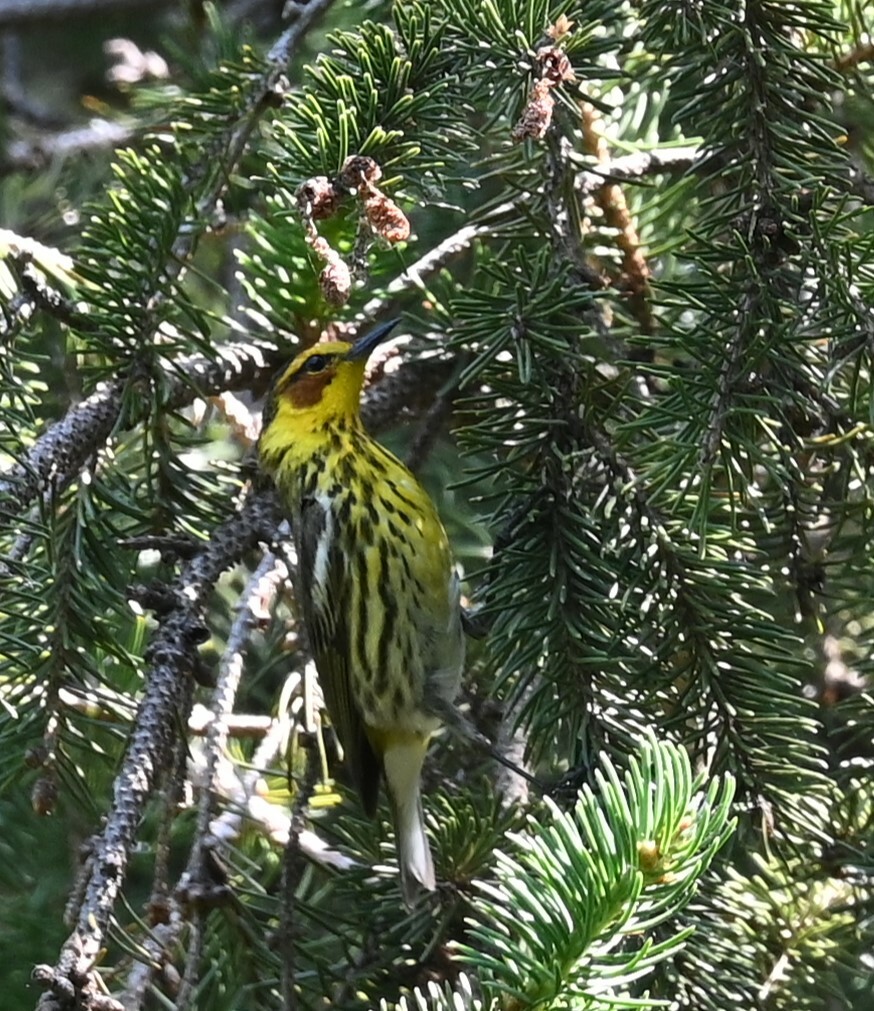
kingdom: Animalia
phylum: Chordata
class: Aves
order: Passeriformes
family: Parulidae
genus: Setophaga
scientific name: Setophaga tigrina
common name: Cape may warbler
